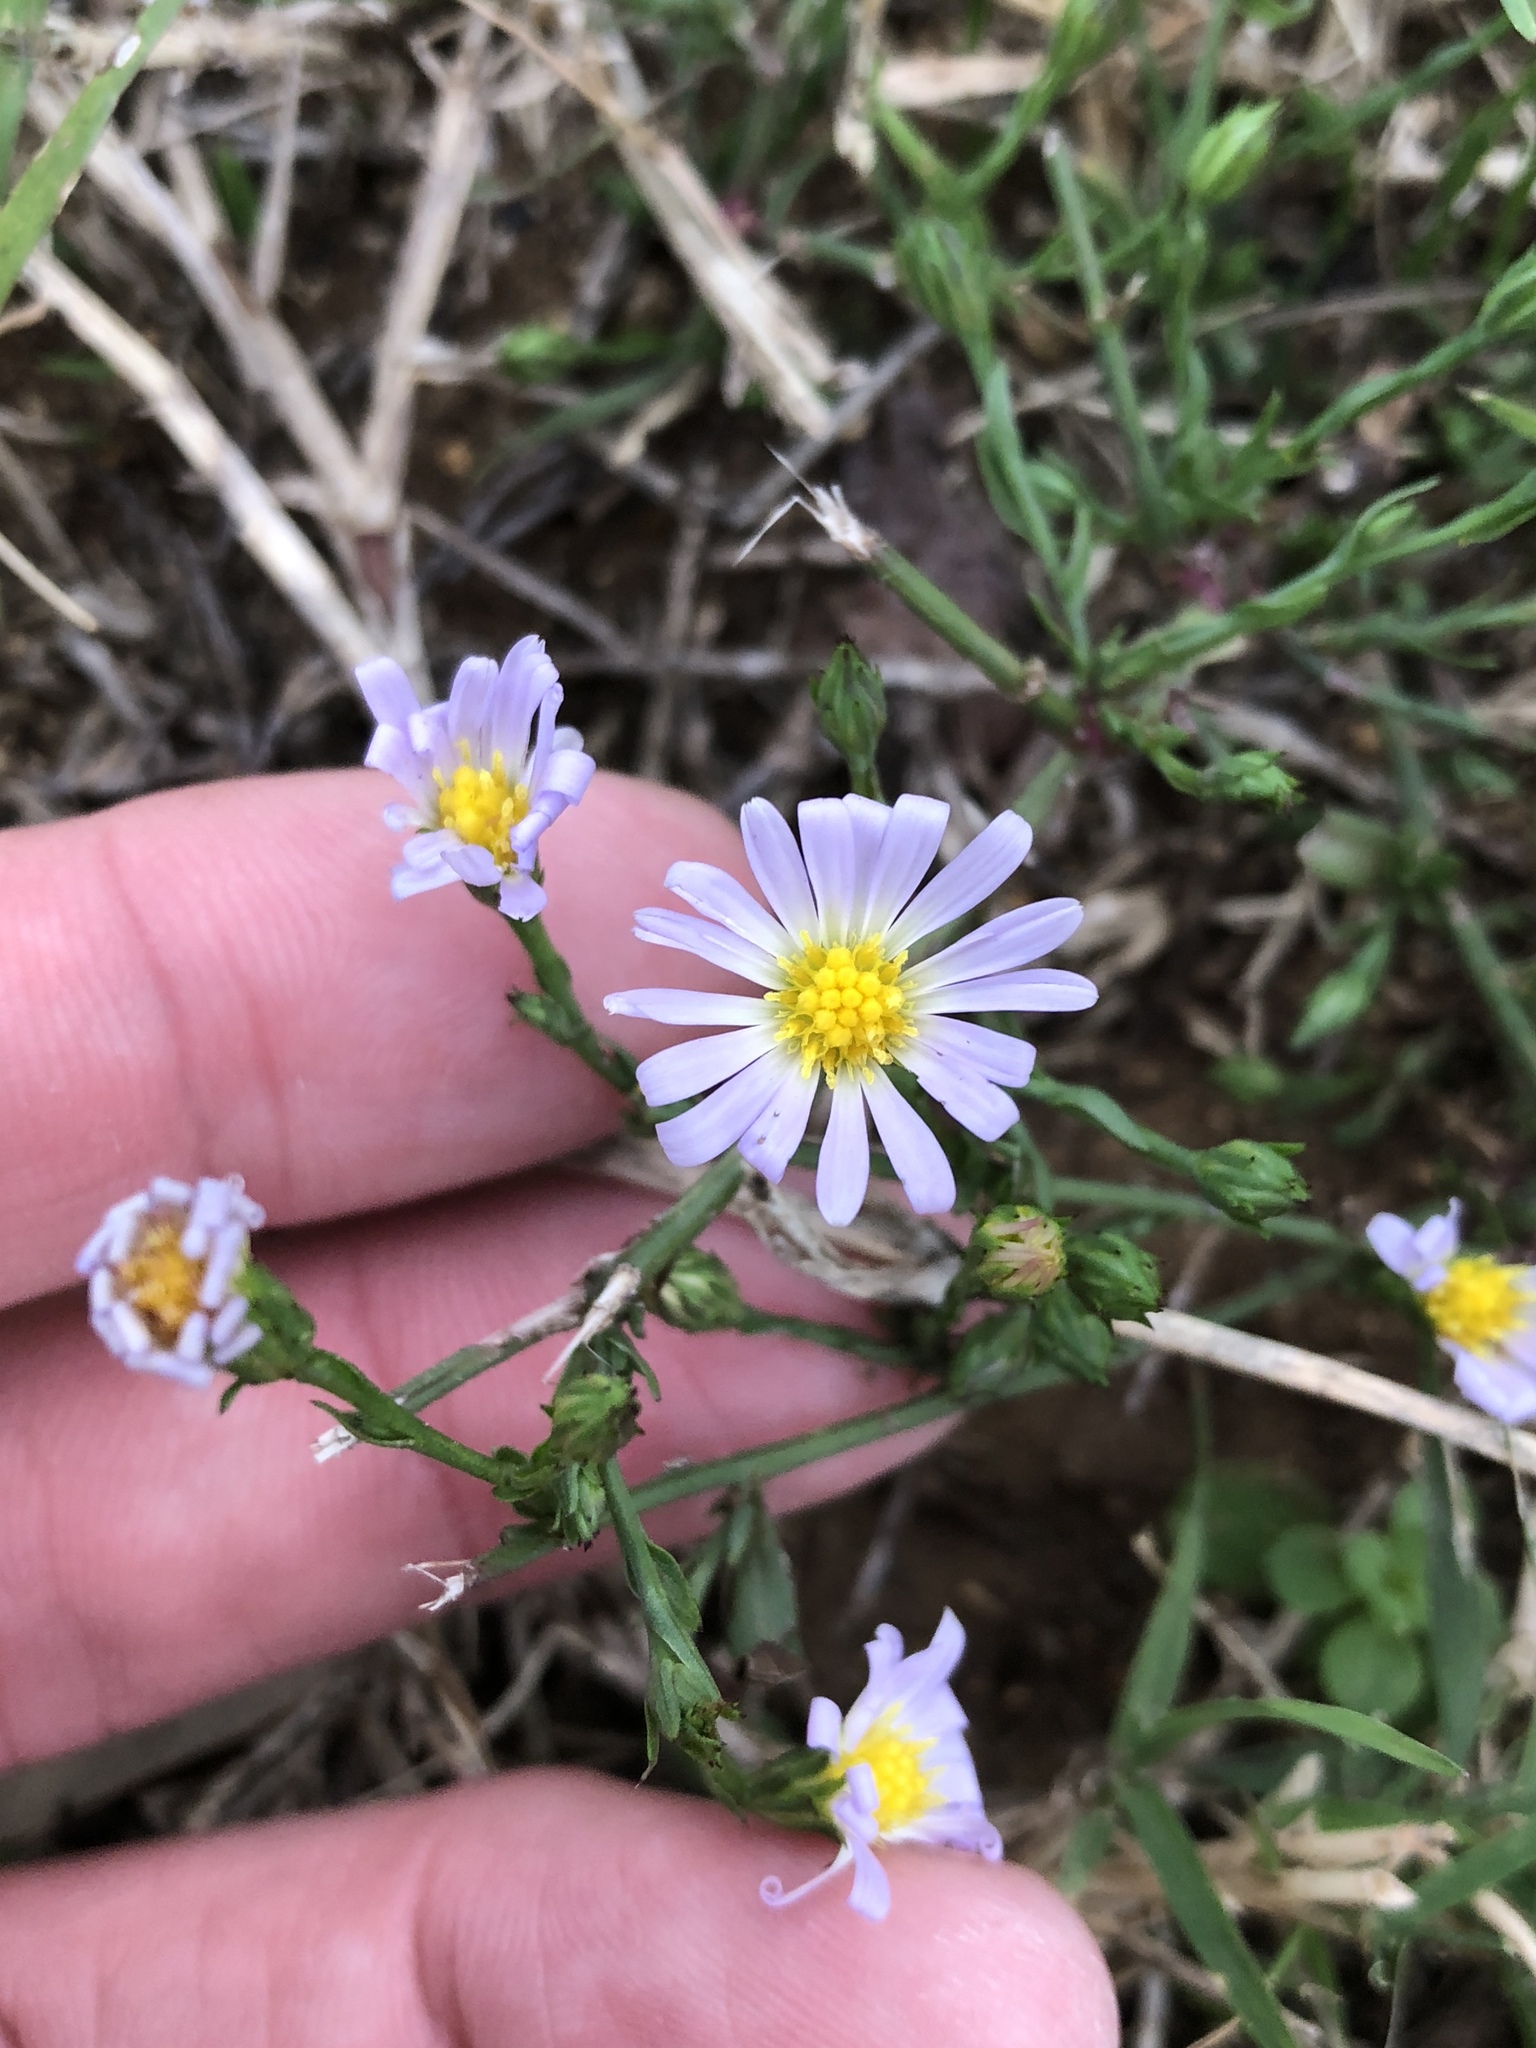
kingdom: Plantae
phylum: Tracheophyta
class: Magnoliopsida
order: Asterales
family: Asteraceae
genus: Symphyotrichum
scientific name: Symphyotrichum divaricatum
